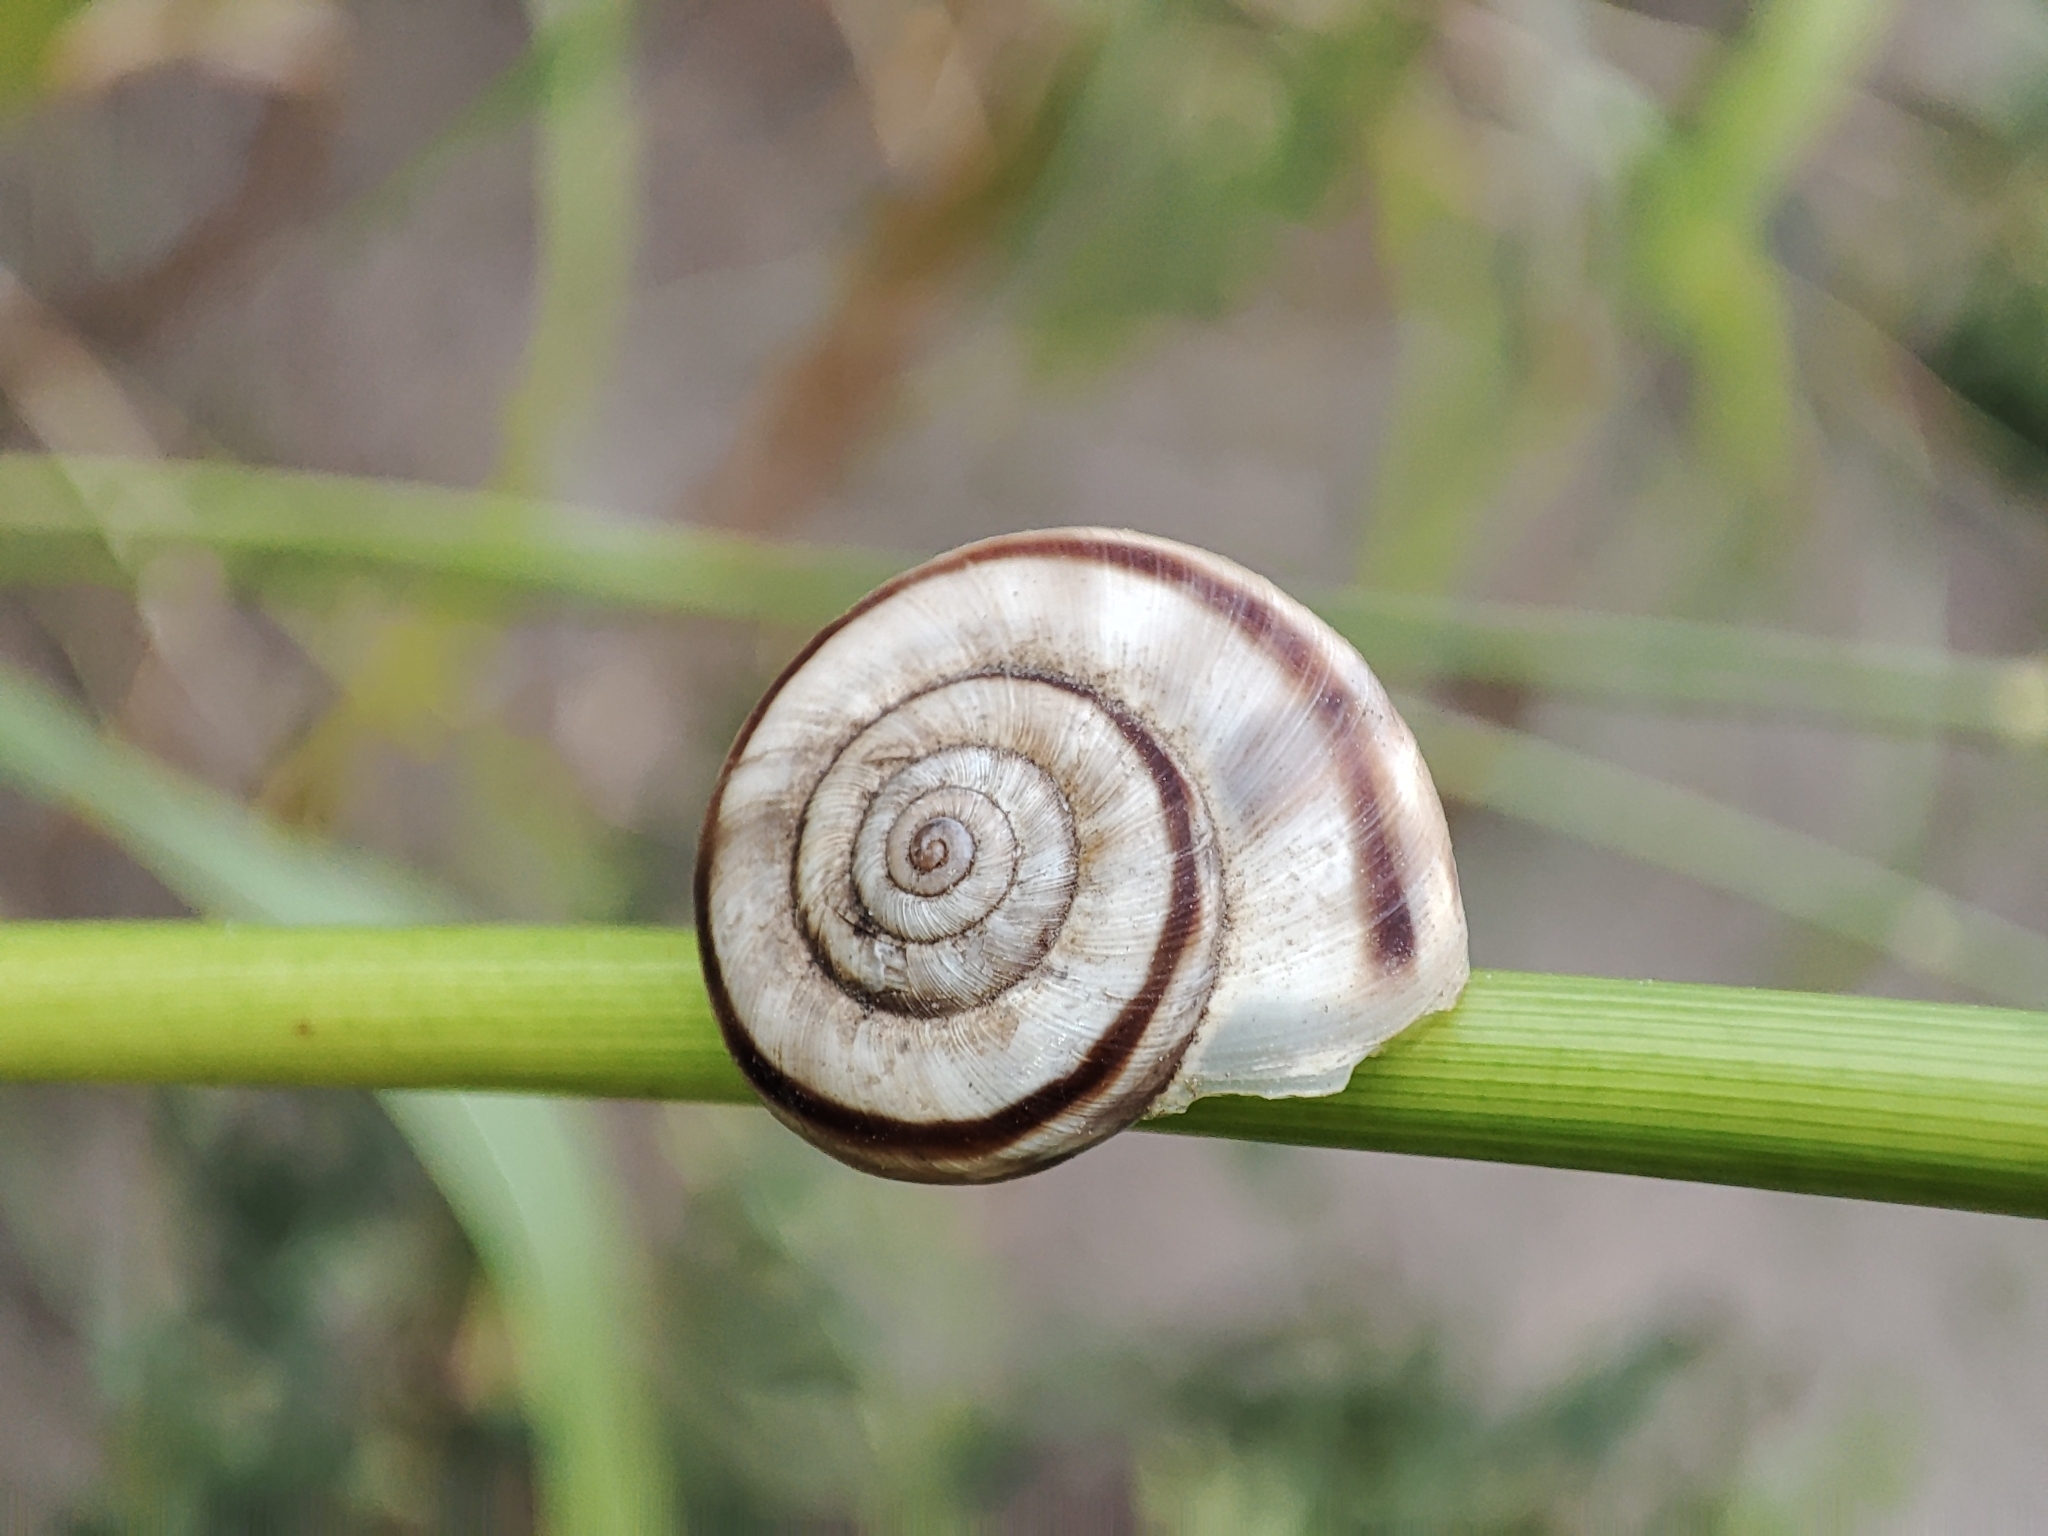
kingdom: Animalia
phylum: Mollusca
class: Gastropoda
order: Stylommatophora
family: Geomitridae
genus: Xerolenta
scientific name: Xerolenta obvia
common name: White heath snail
